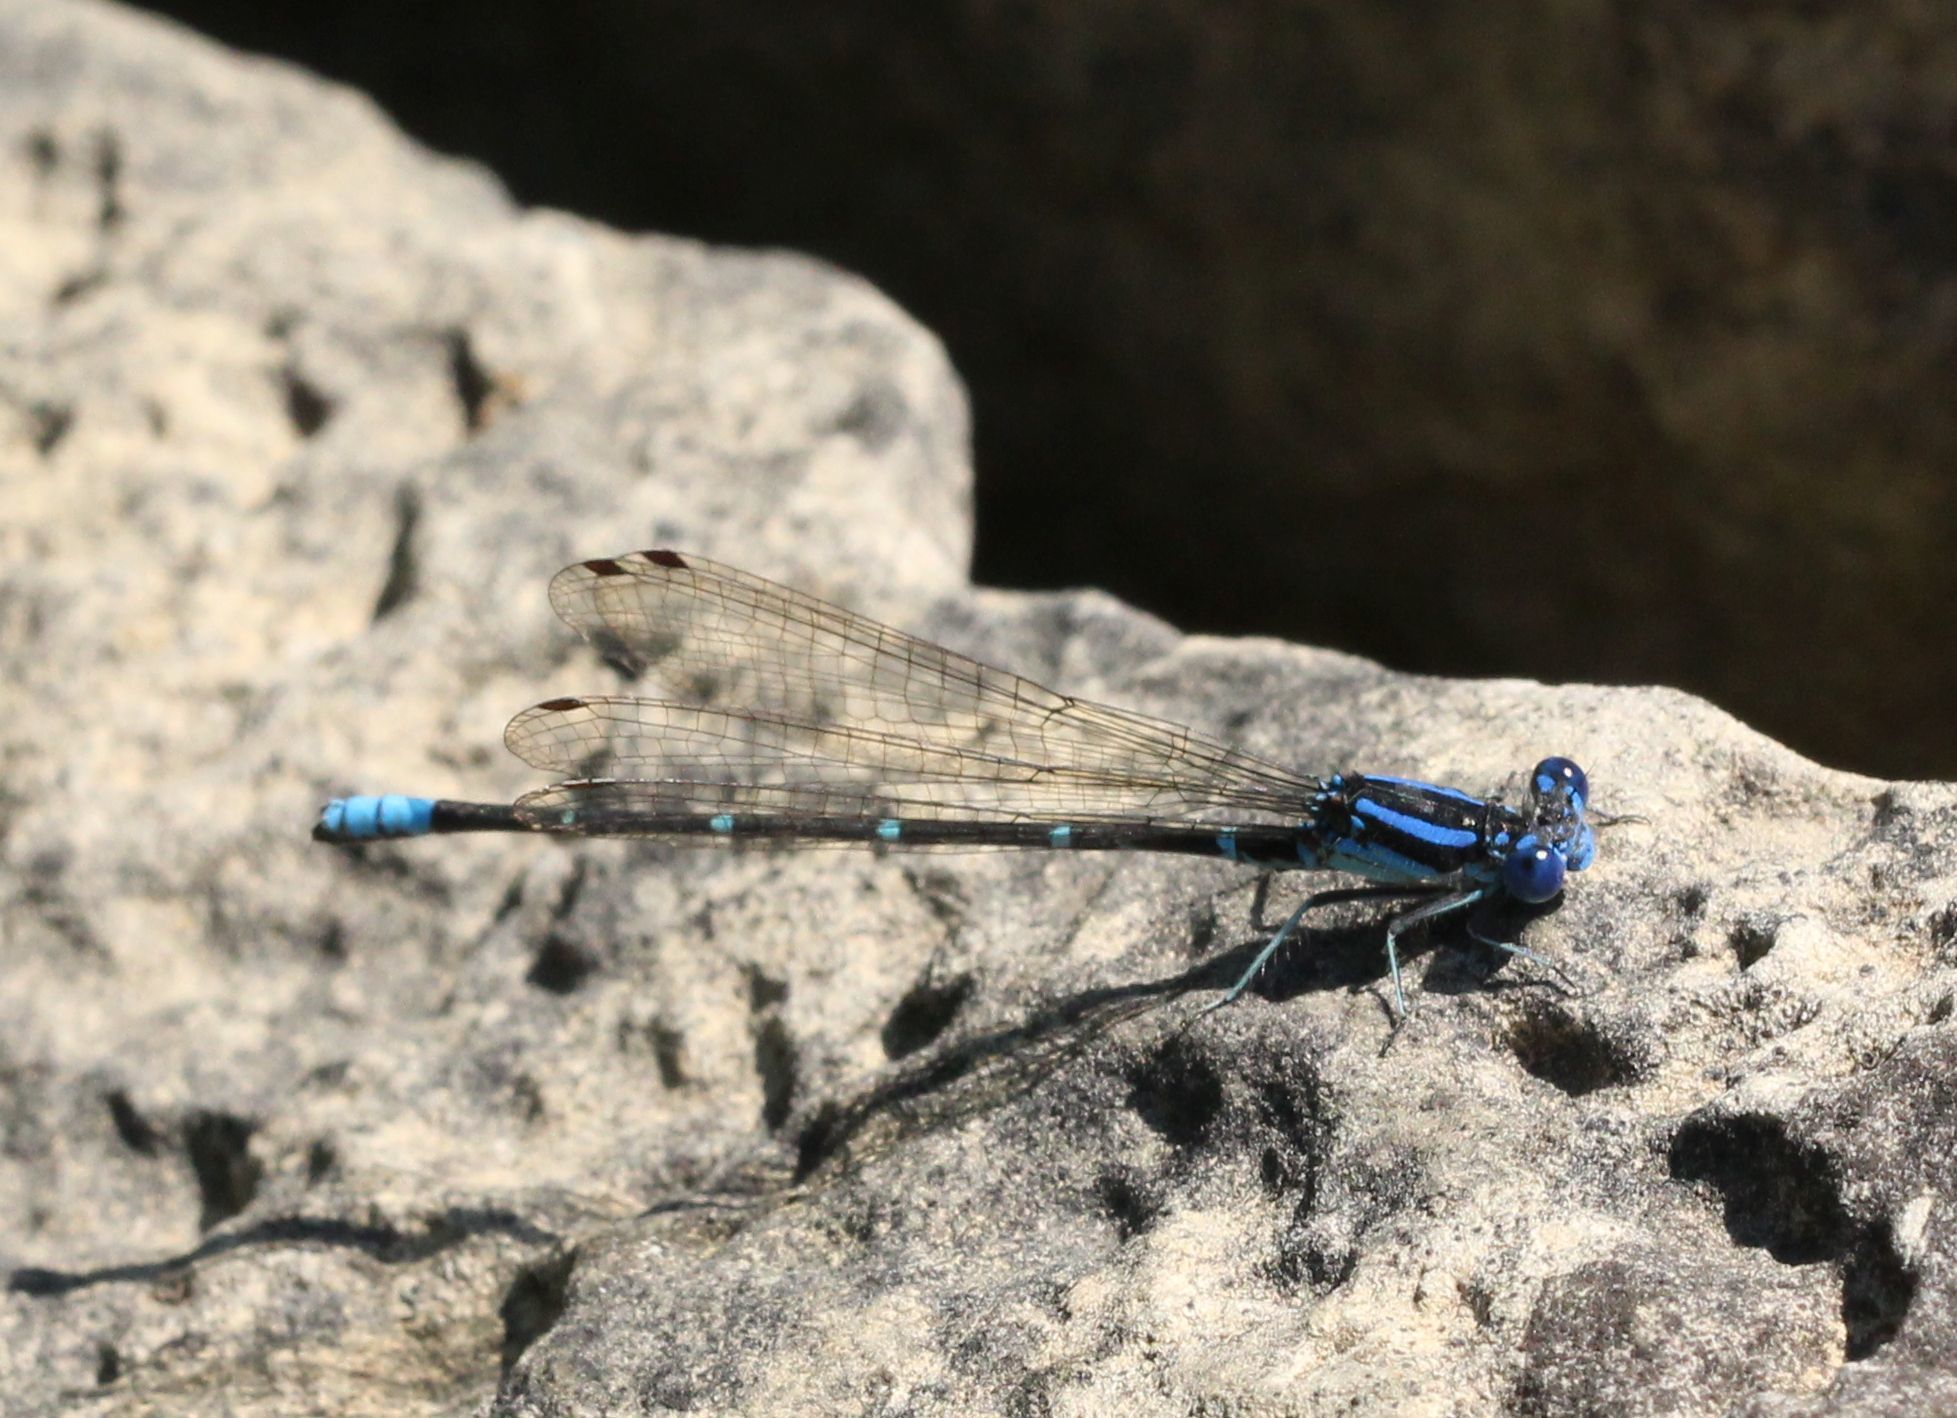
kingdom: Animalia
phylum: Arthropoda
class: Insecta
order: Odonata
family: Coenagrionidae
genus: Argia
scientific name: Argia sedula
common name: Blue-ringed dancer
